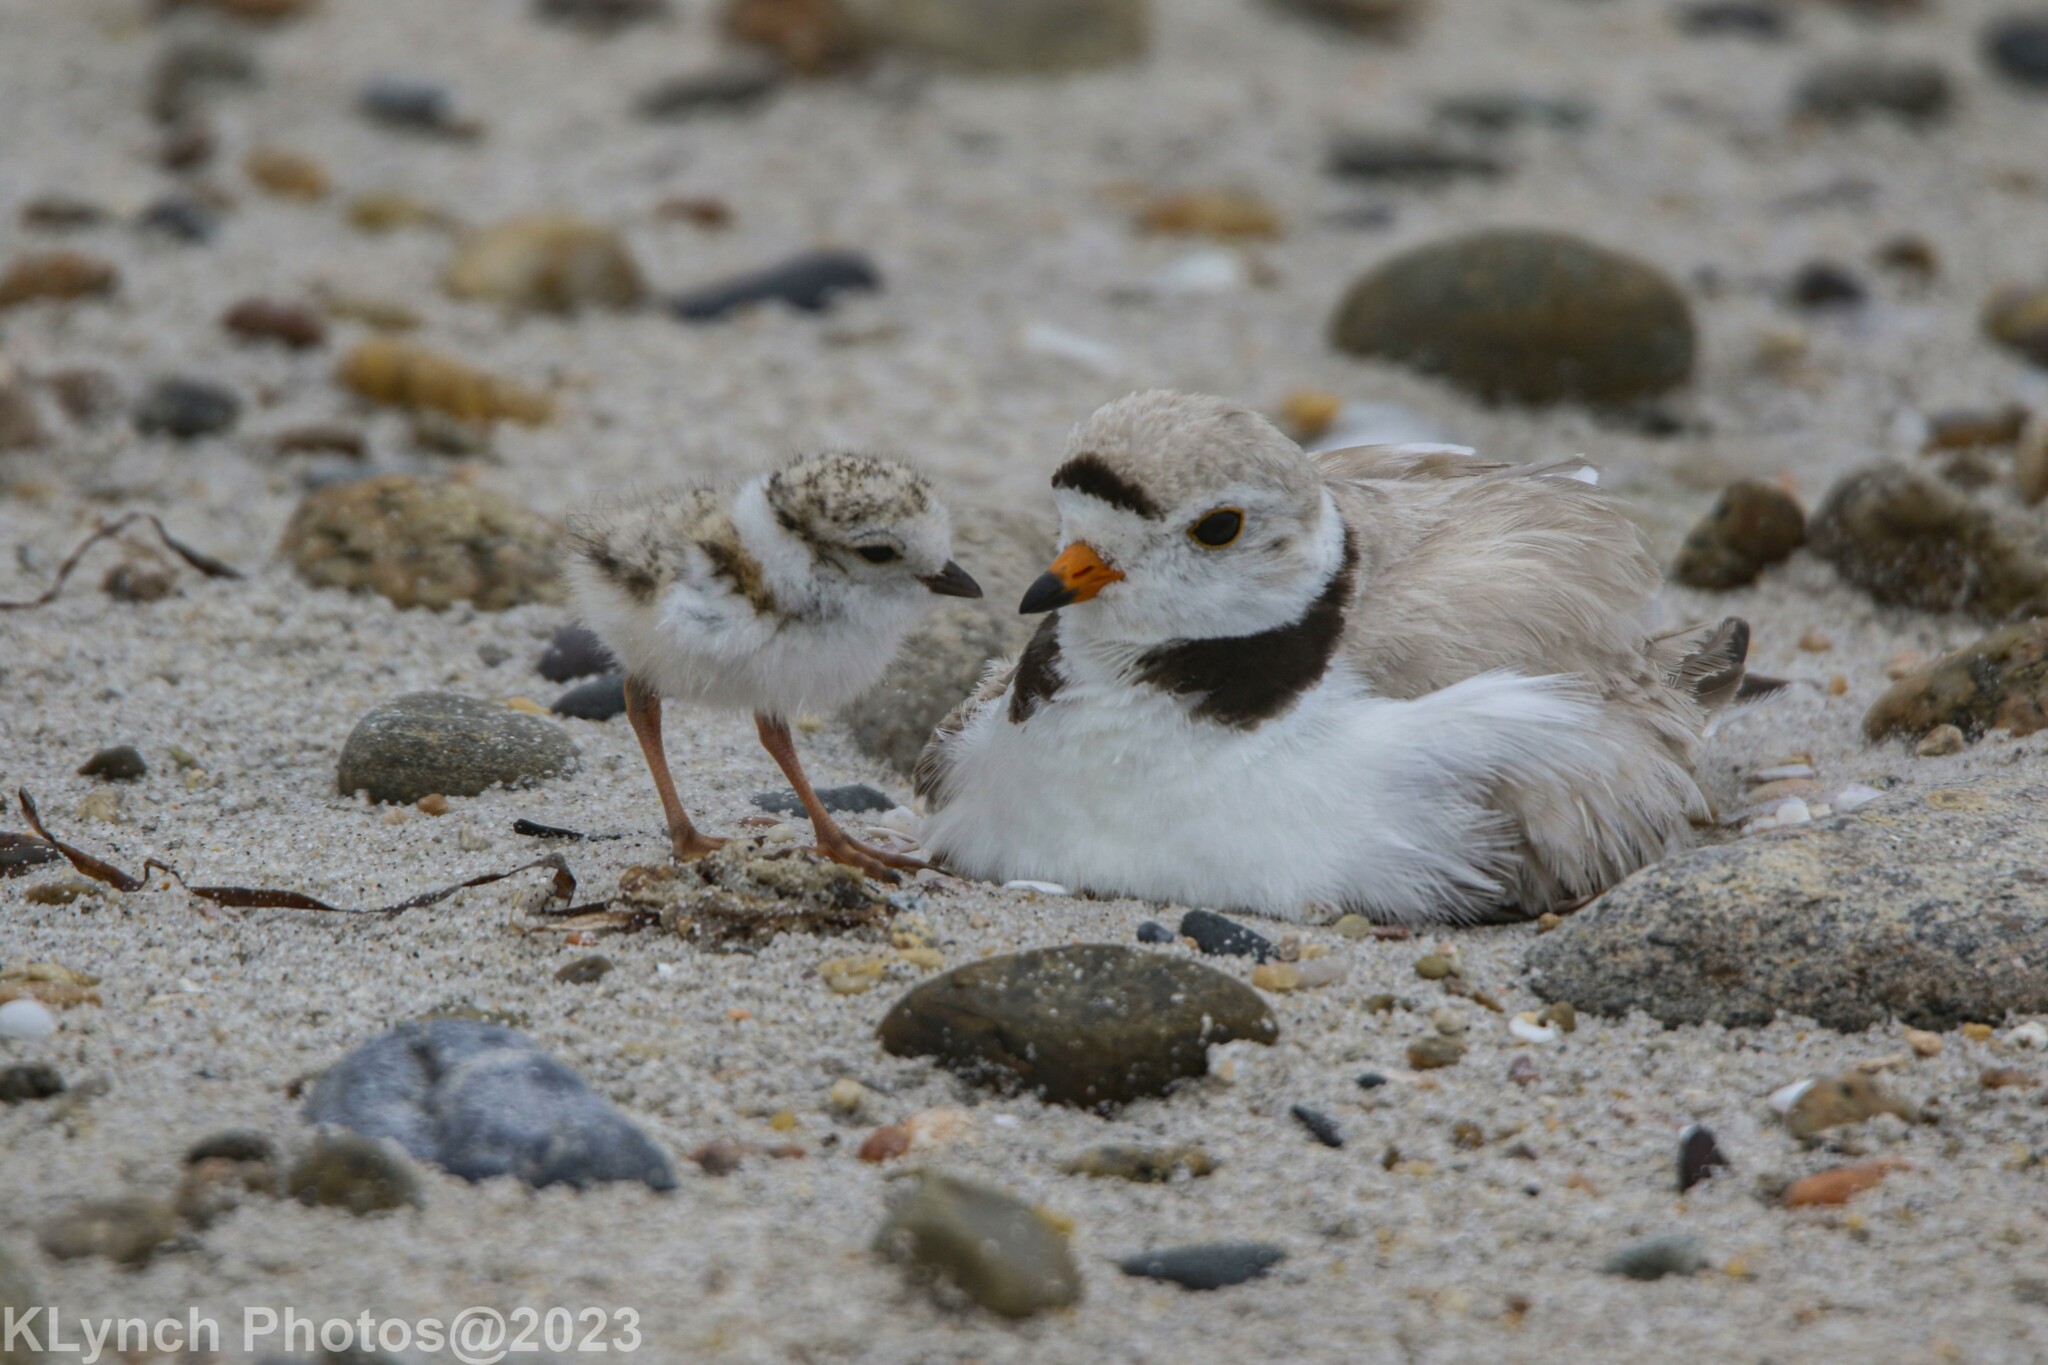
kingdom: Animalia
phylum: Chordata
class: Aves
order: Charadriiformes
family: Charadriidae
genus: Charadrius
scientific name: Charadrius melodus
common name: Piping plover
